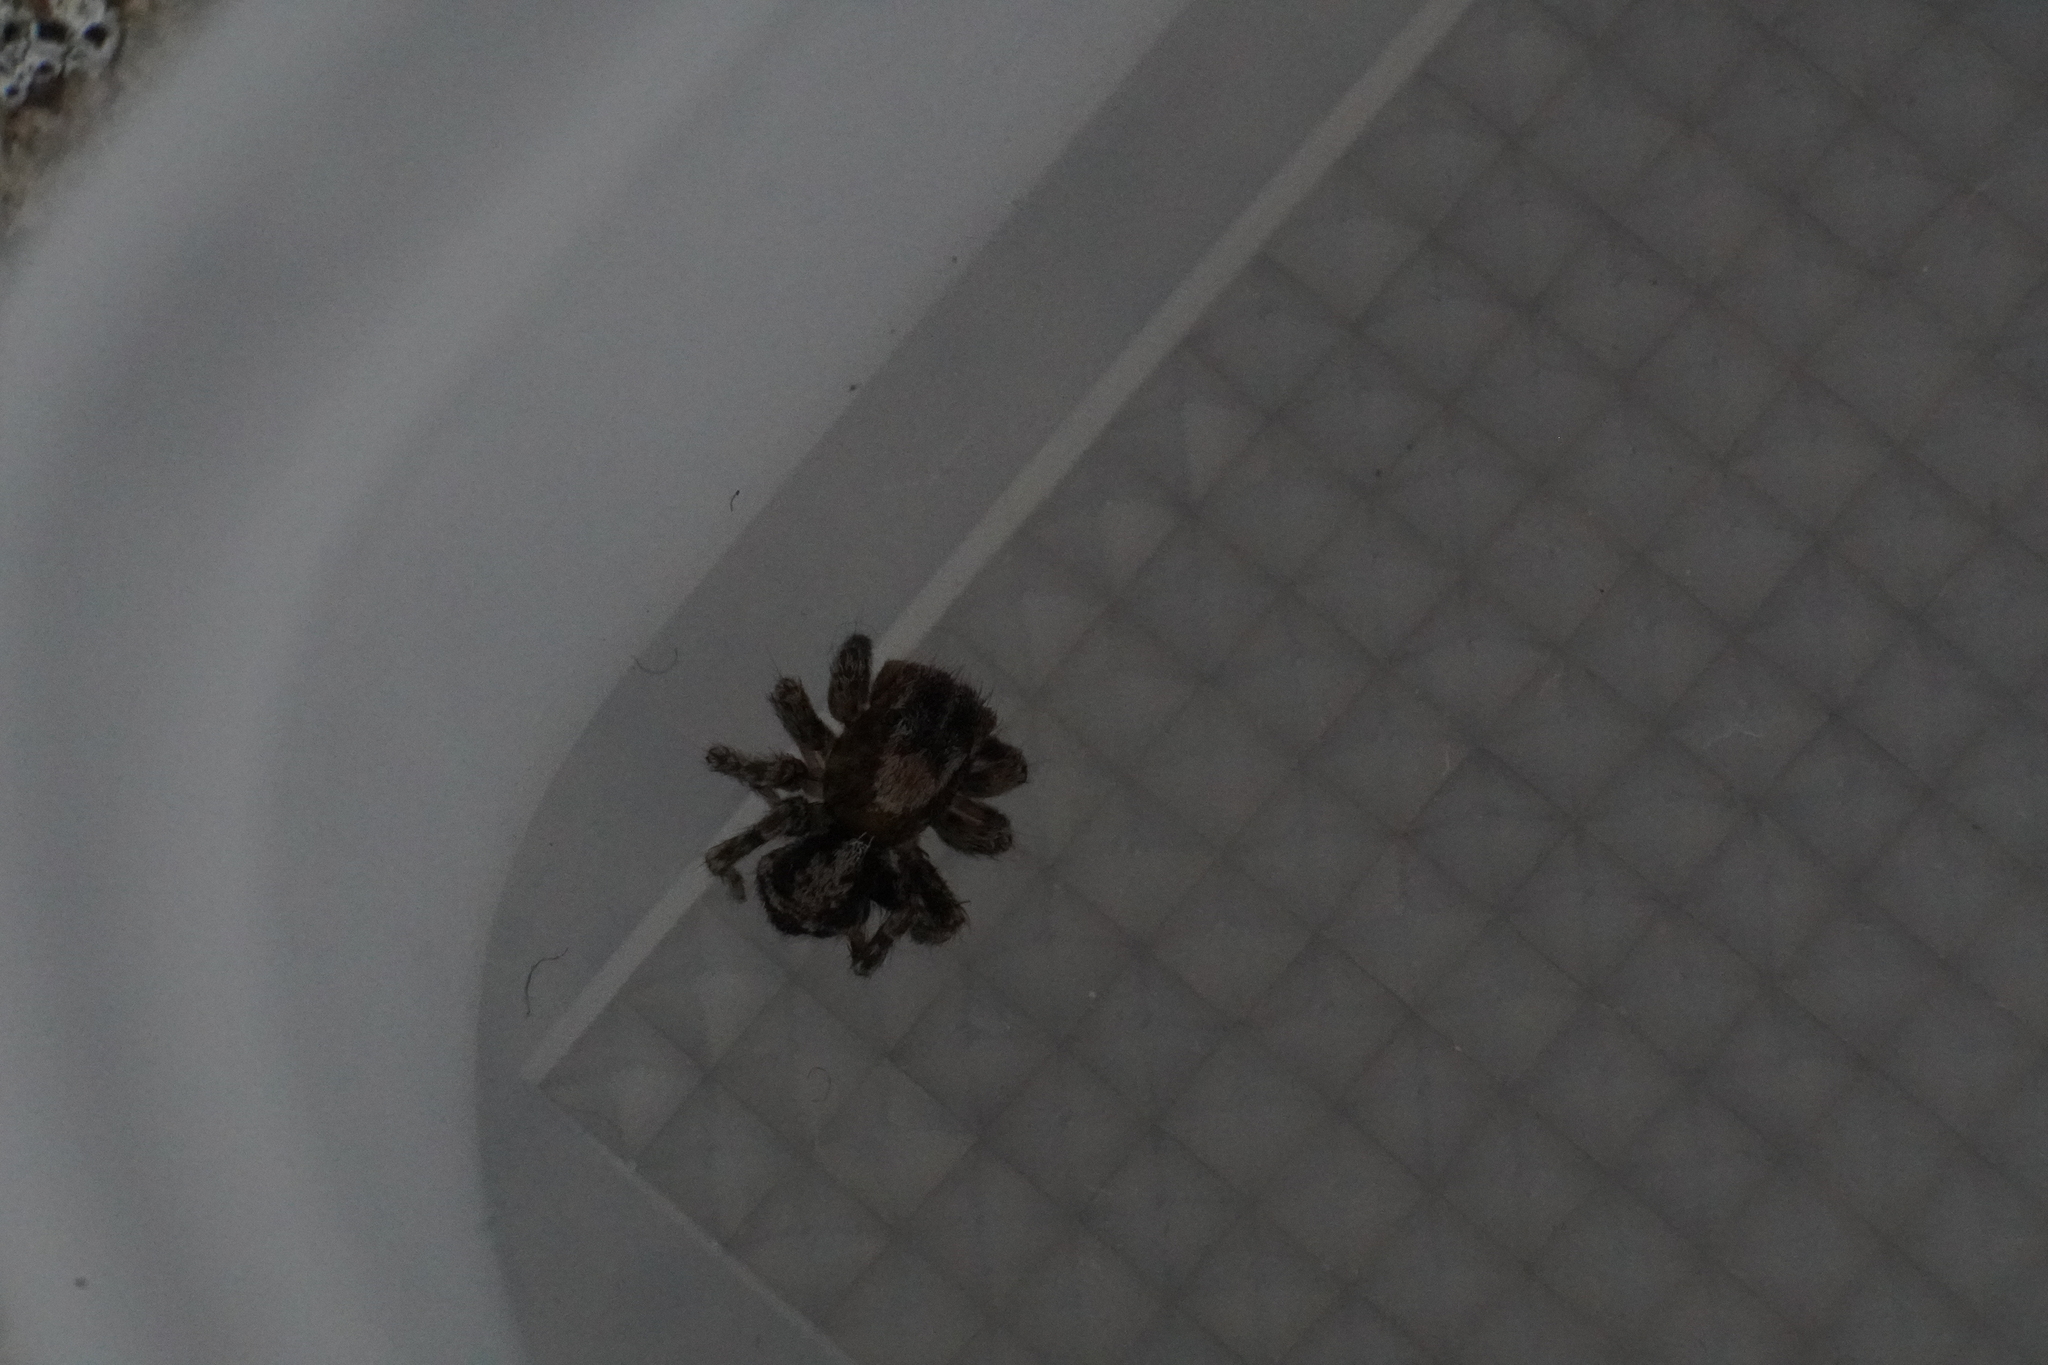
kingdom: Animalia
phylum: Arthropoda
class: Arachnida
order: Araneae
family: Salticidae
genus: Naphrys
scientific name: Naphrys pulex
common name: Flea jumping spider
